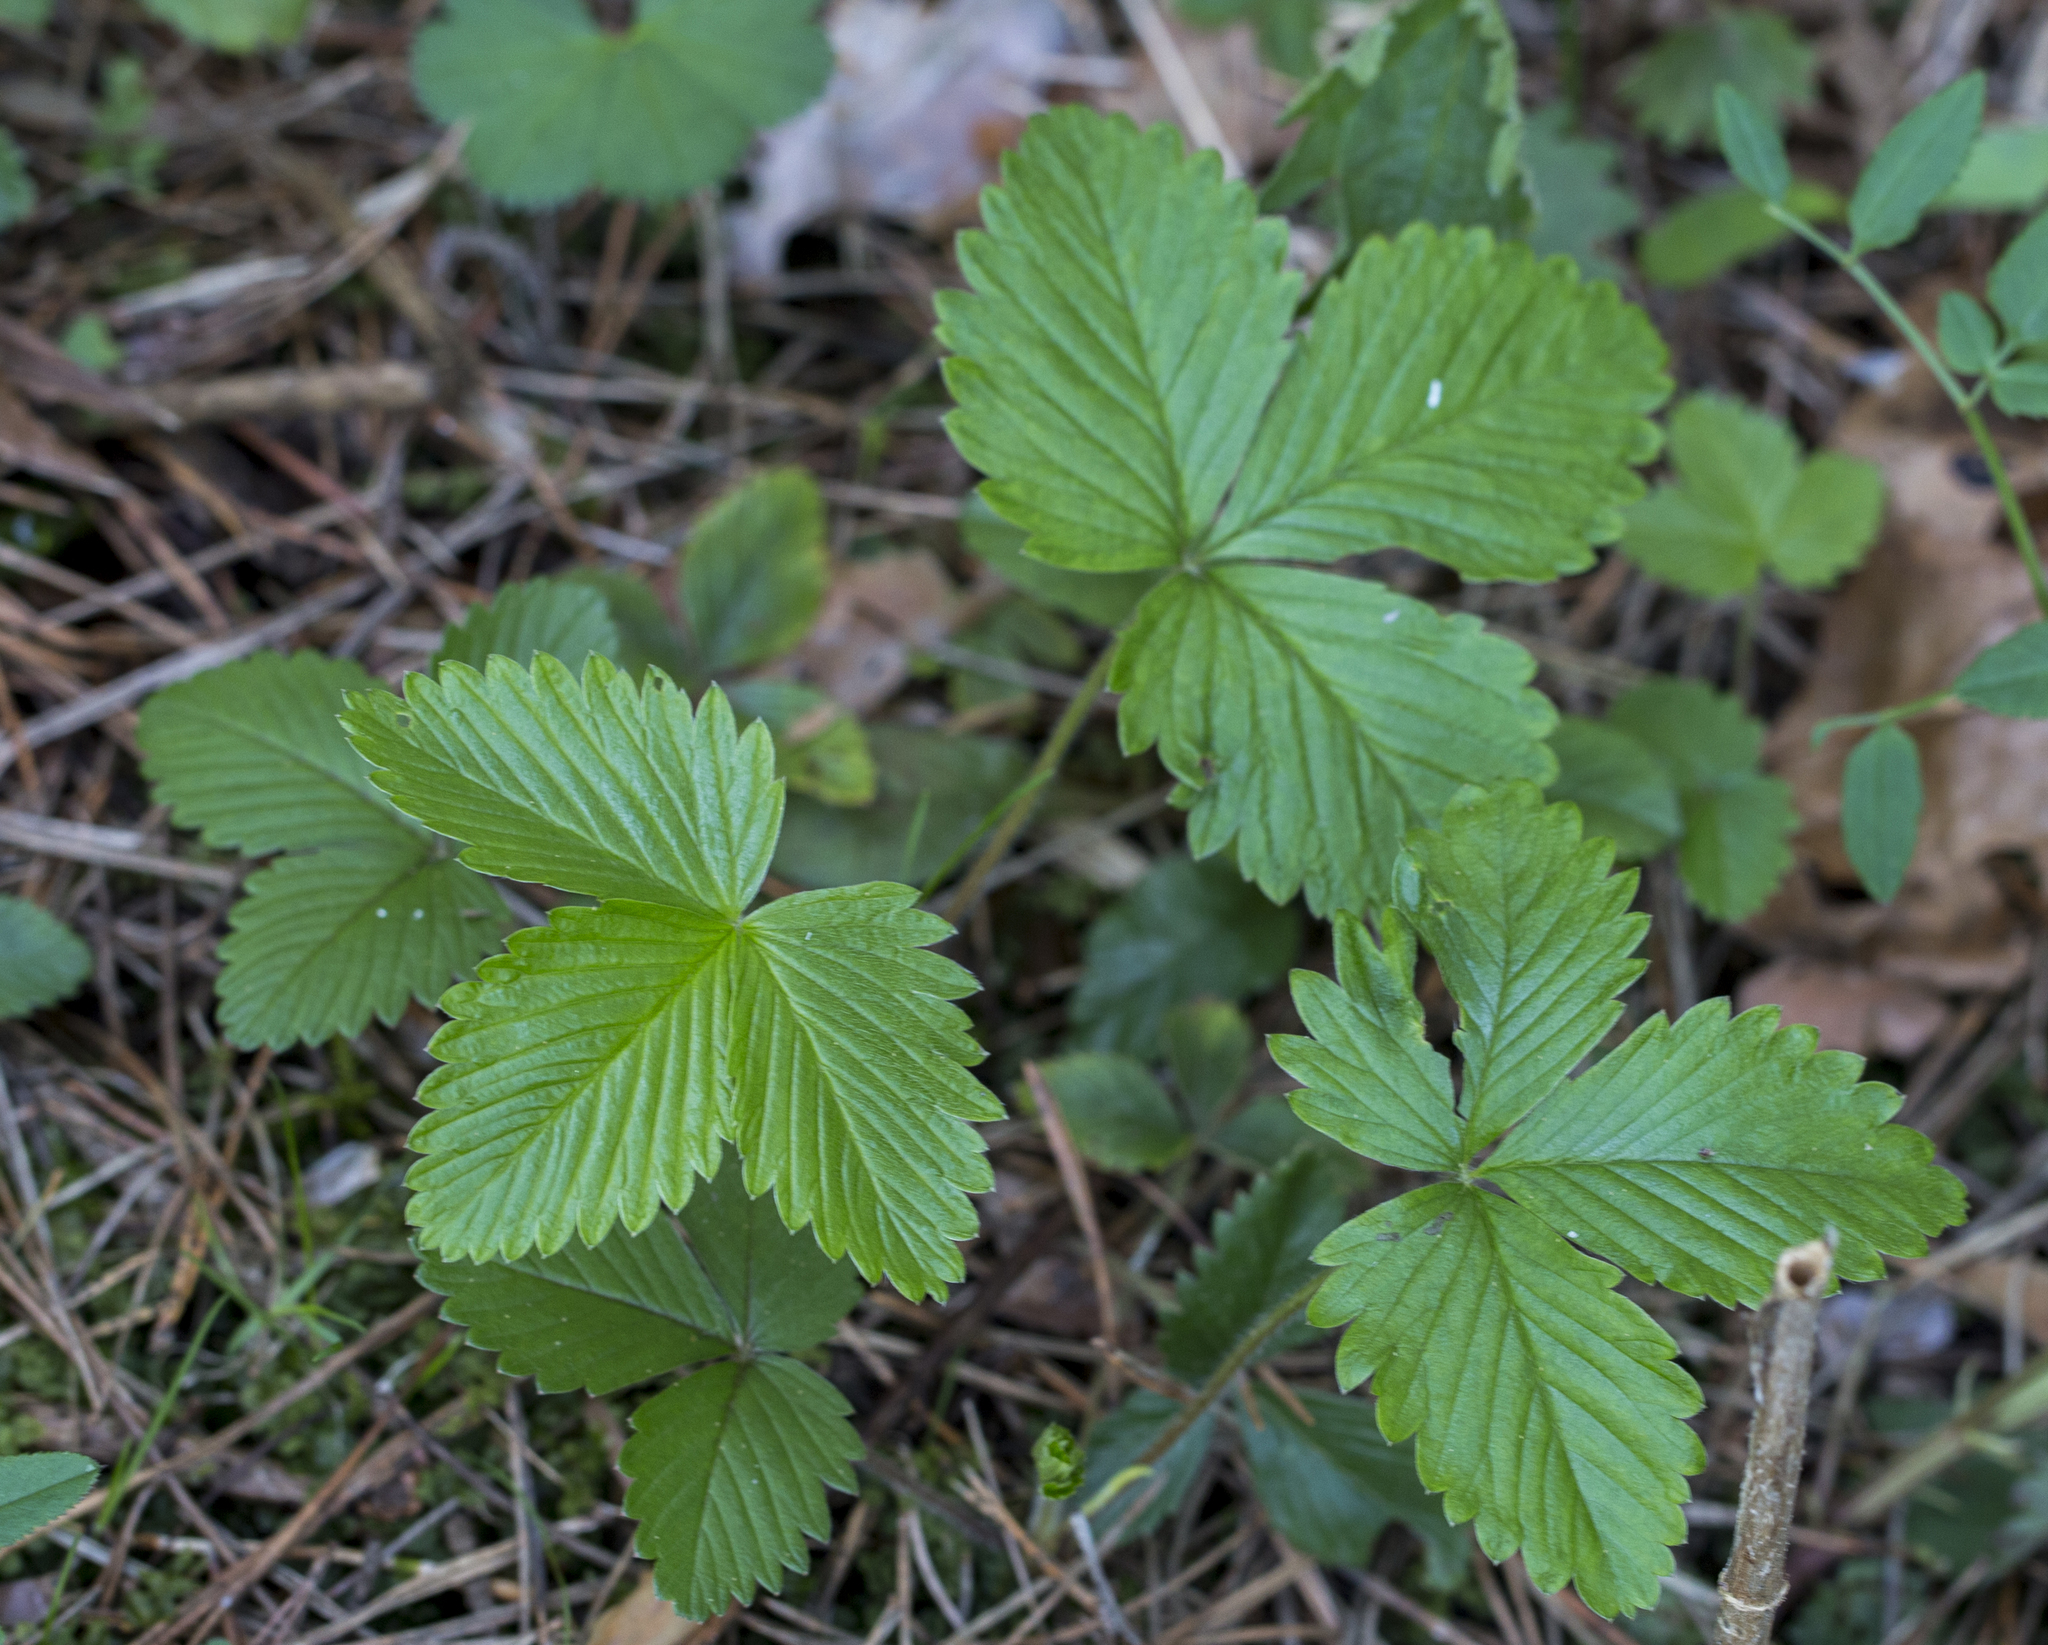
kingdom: Plantae
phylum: Tracheophyta
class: Magnoliopsida
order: Rosales
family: Rosaceae
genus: Fragaria
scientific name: Fragaria vesca
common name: Wild strawberry
